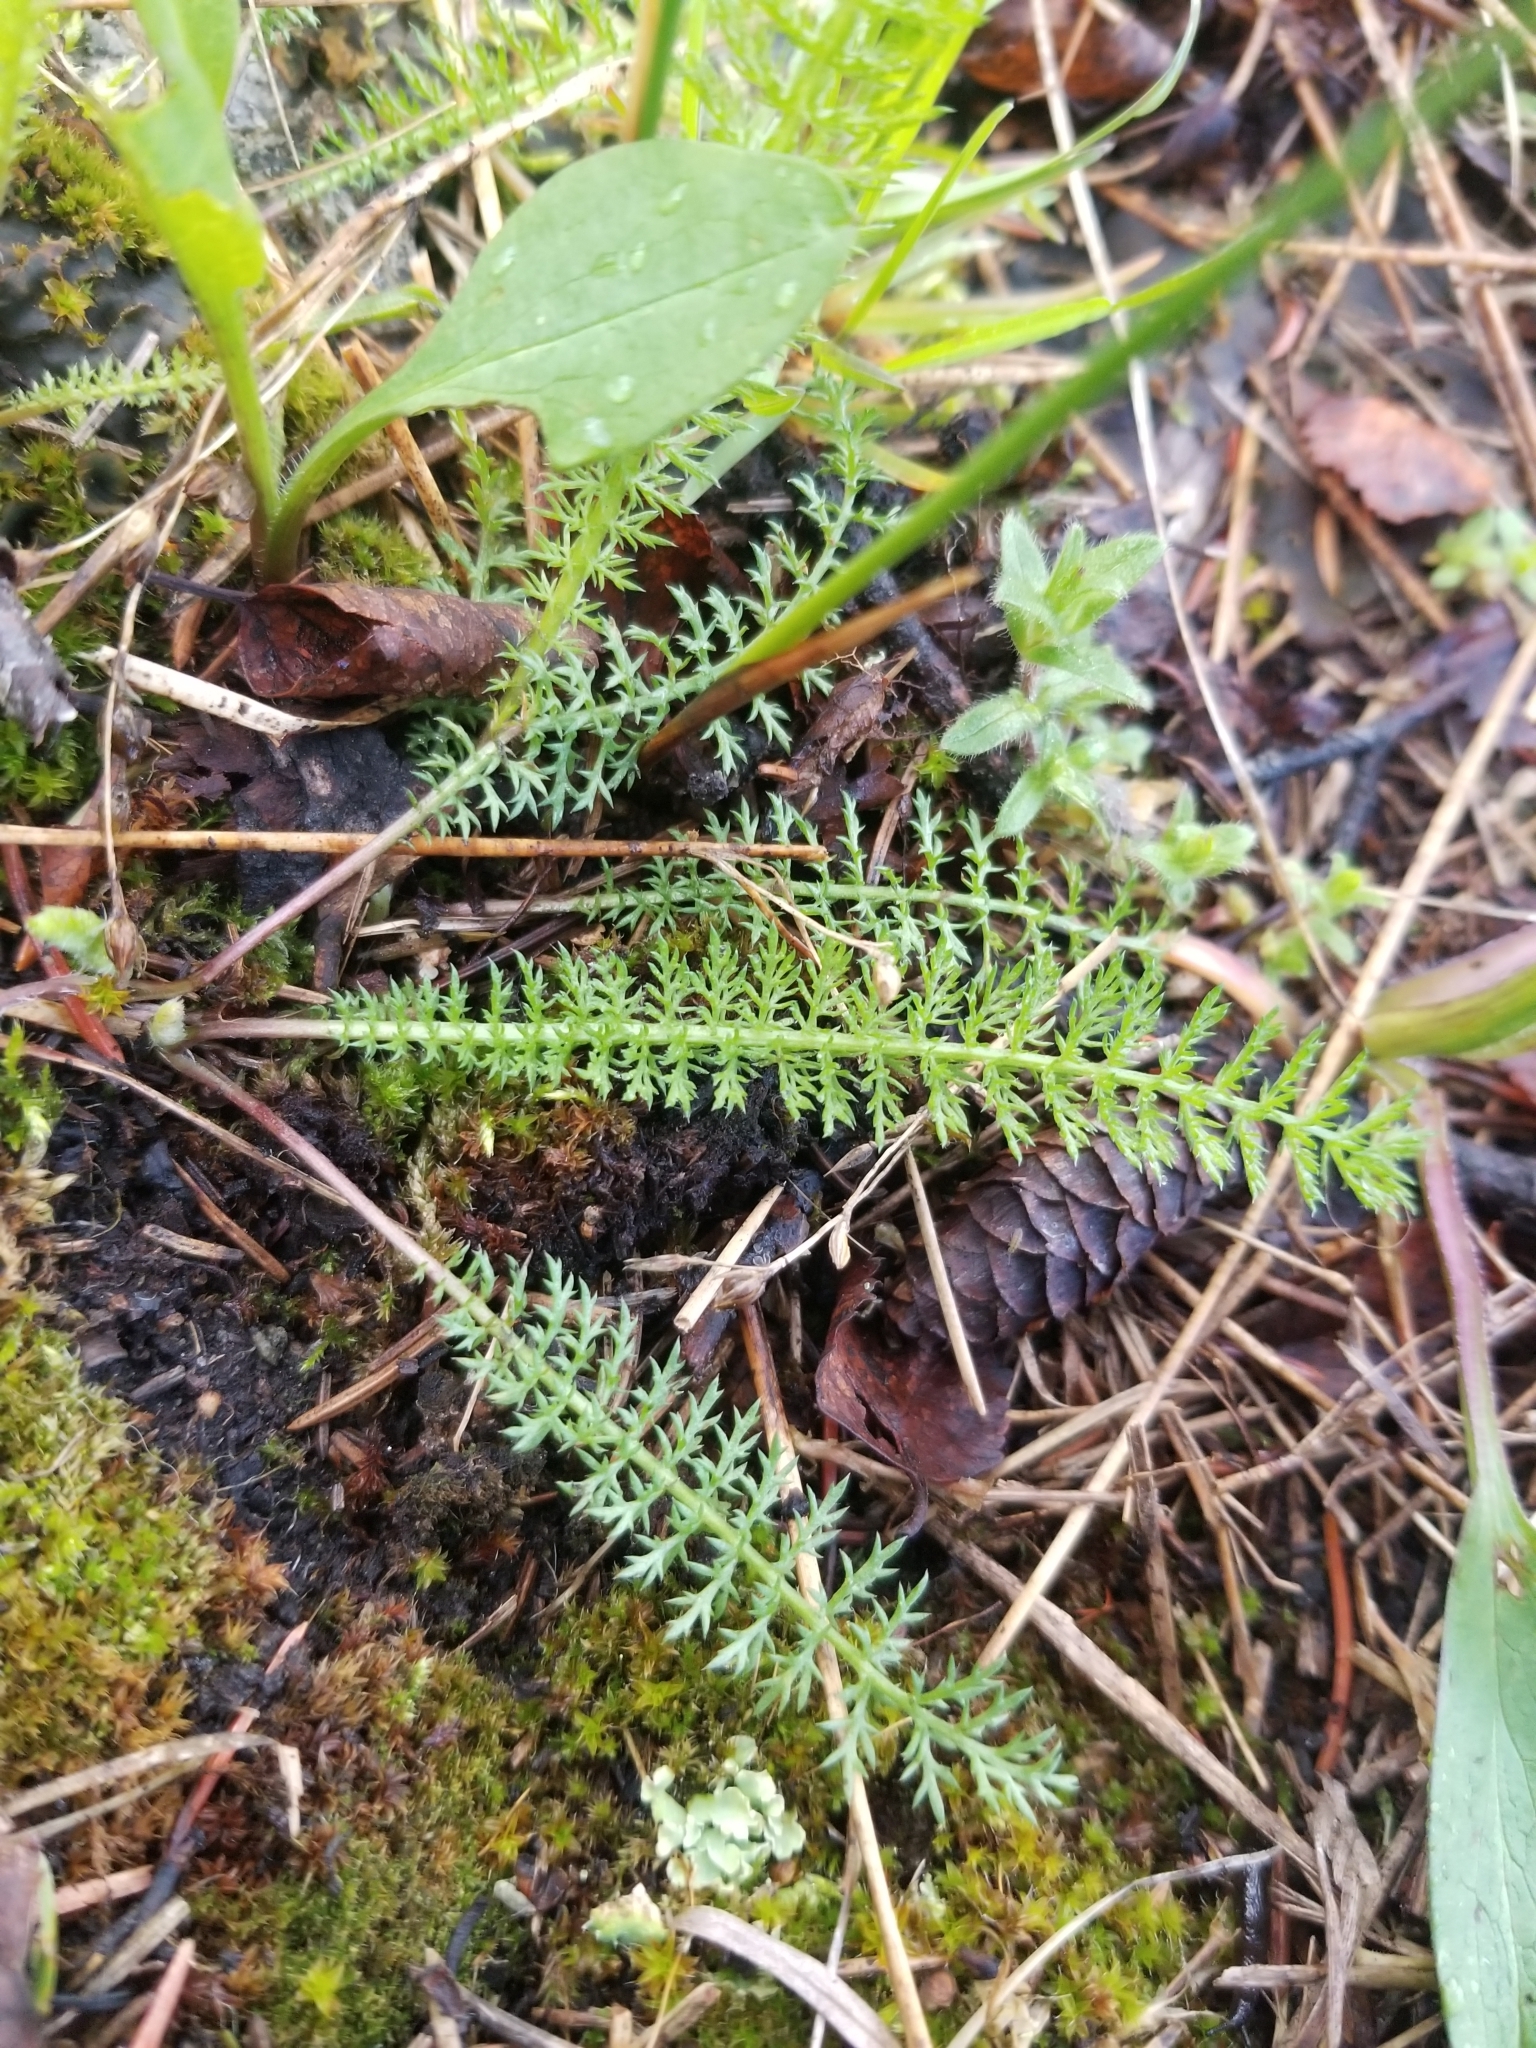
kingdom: Plantae
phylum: Tracheophyta
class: Magnoliopsida
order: Asterales
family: Asteraceae
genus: Achillea
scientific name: Achillea millefolium
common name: Yarrow
